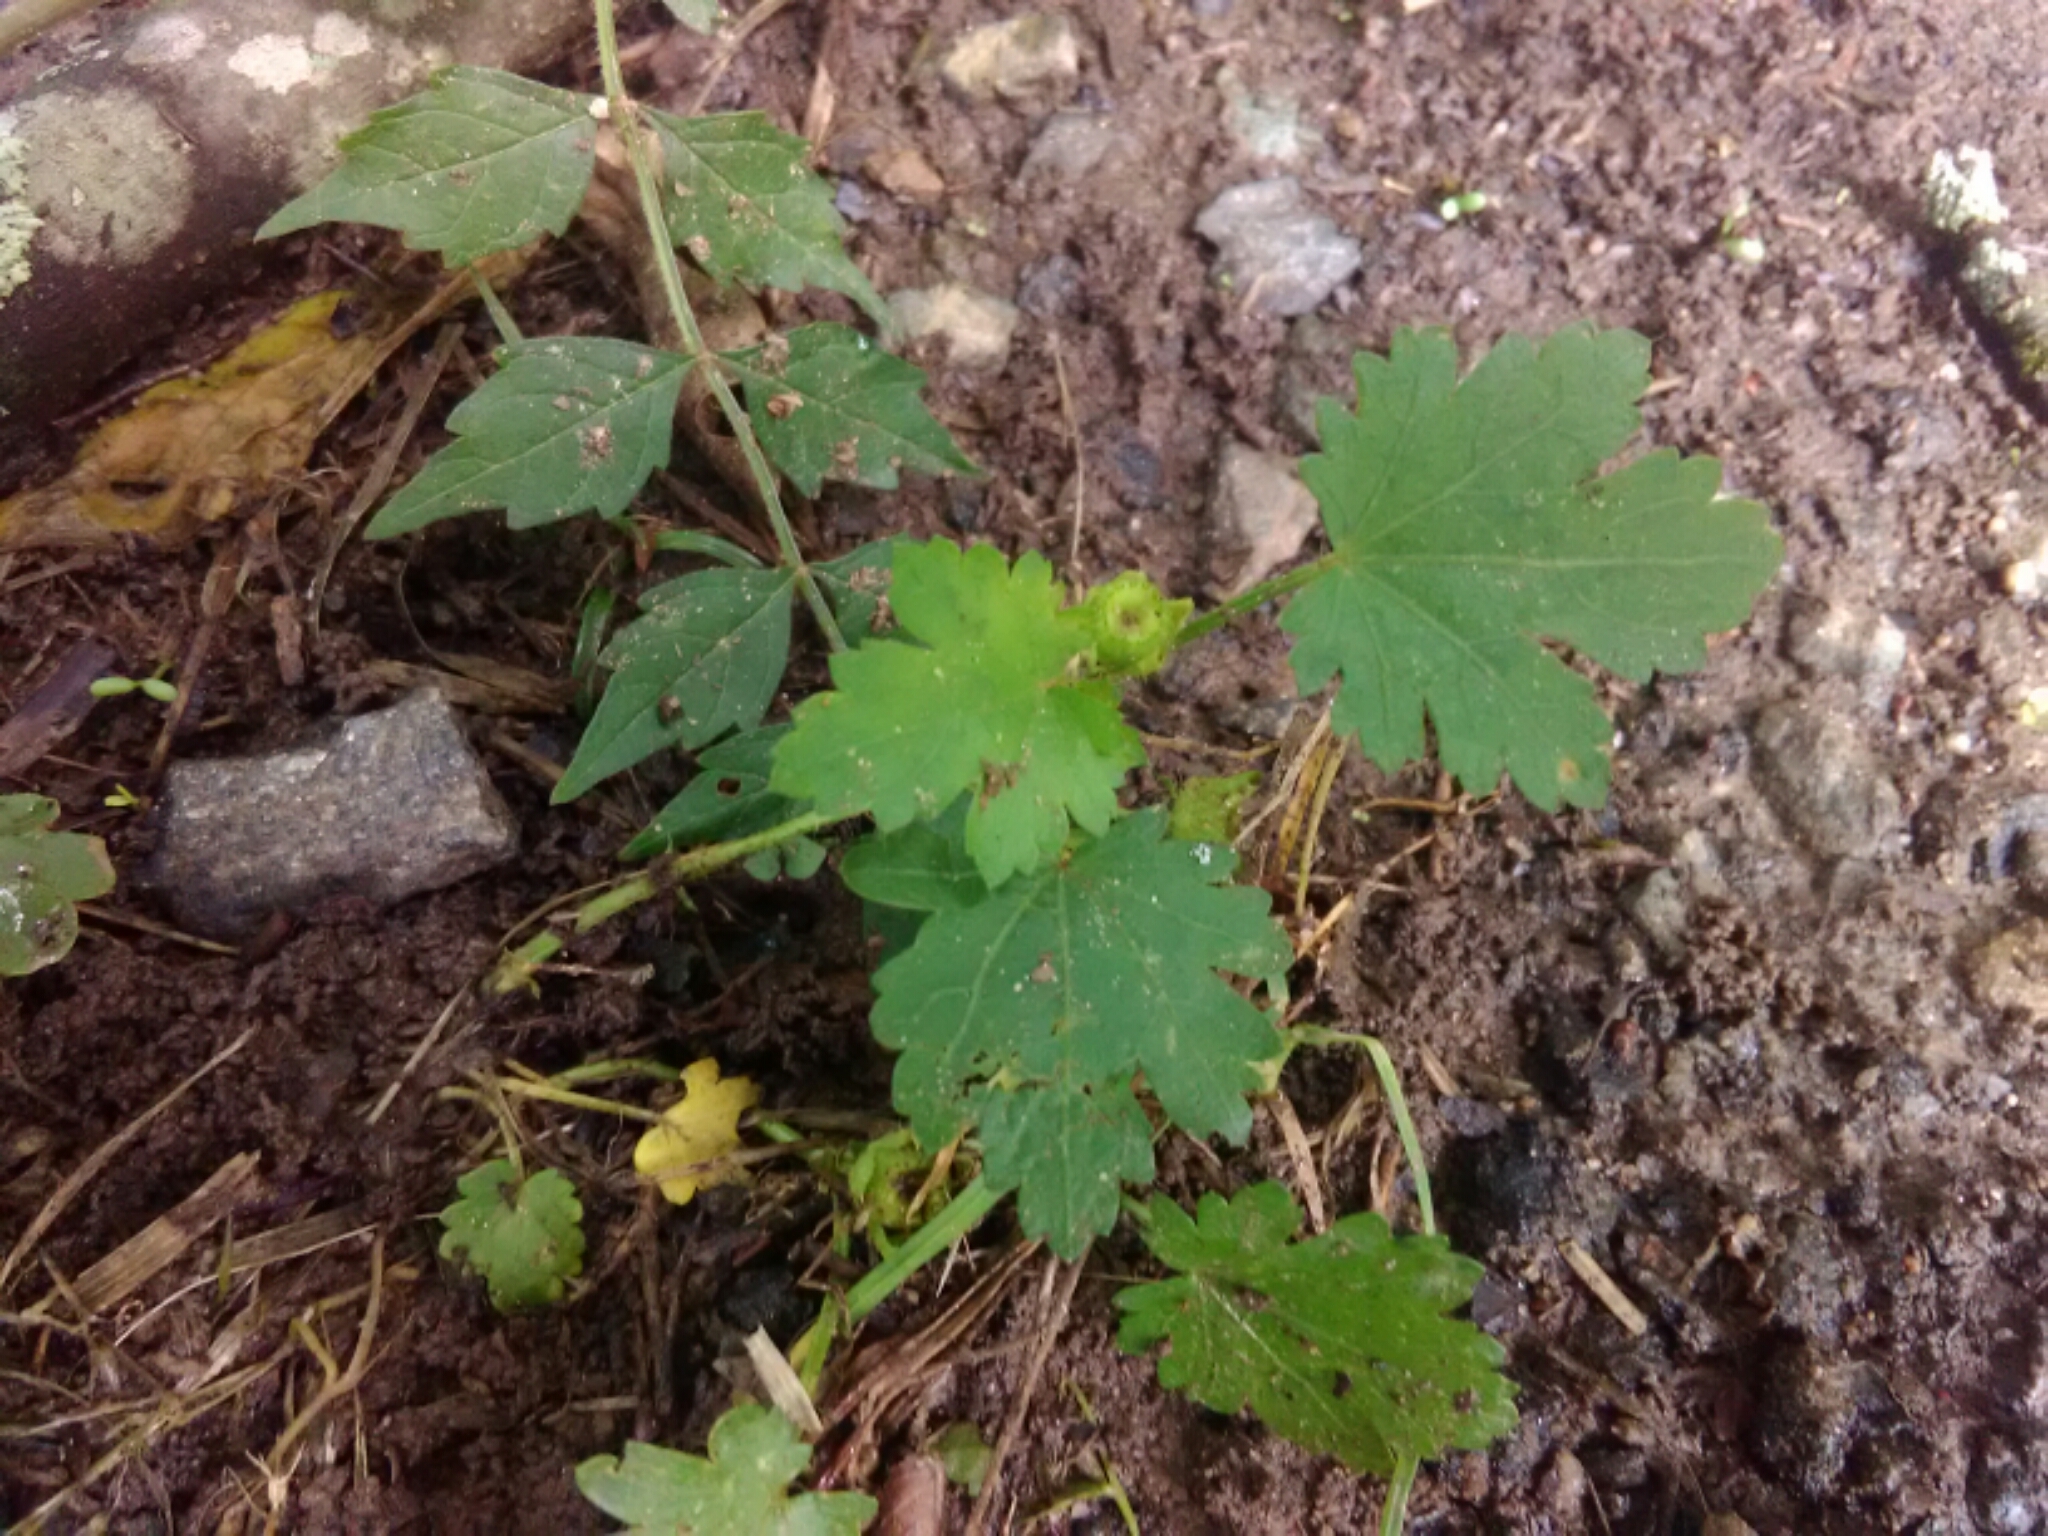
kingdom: Plantae
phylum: Tracheophyta
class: Magnoliopsida
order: Malvales
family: Malvaceae
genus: Modiola
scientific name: Modiola caroliniana
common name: Carolina bristlemallow
